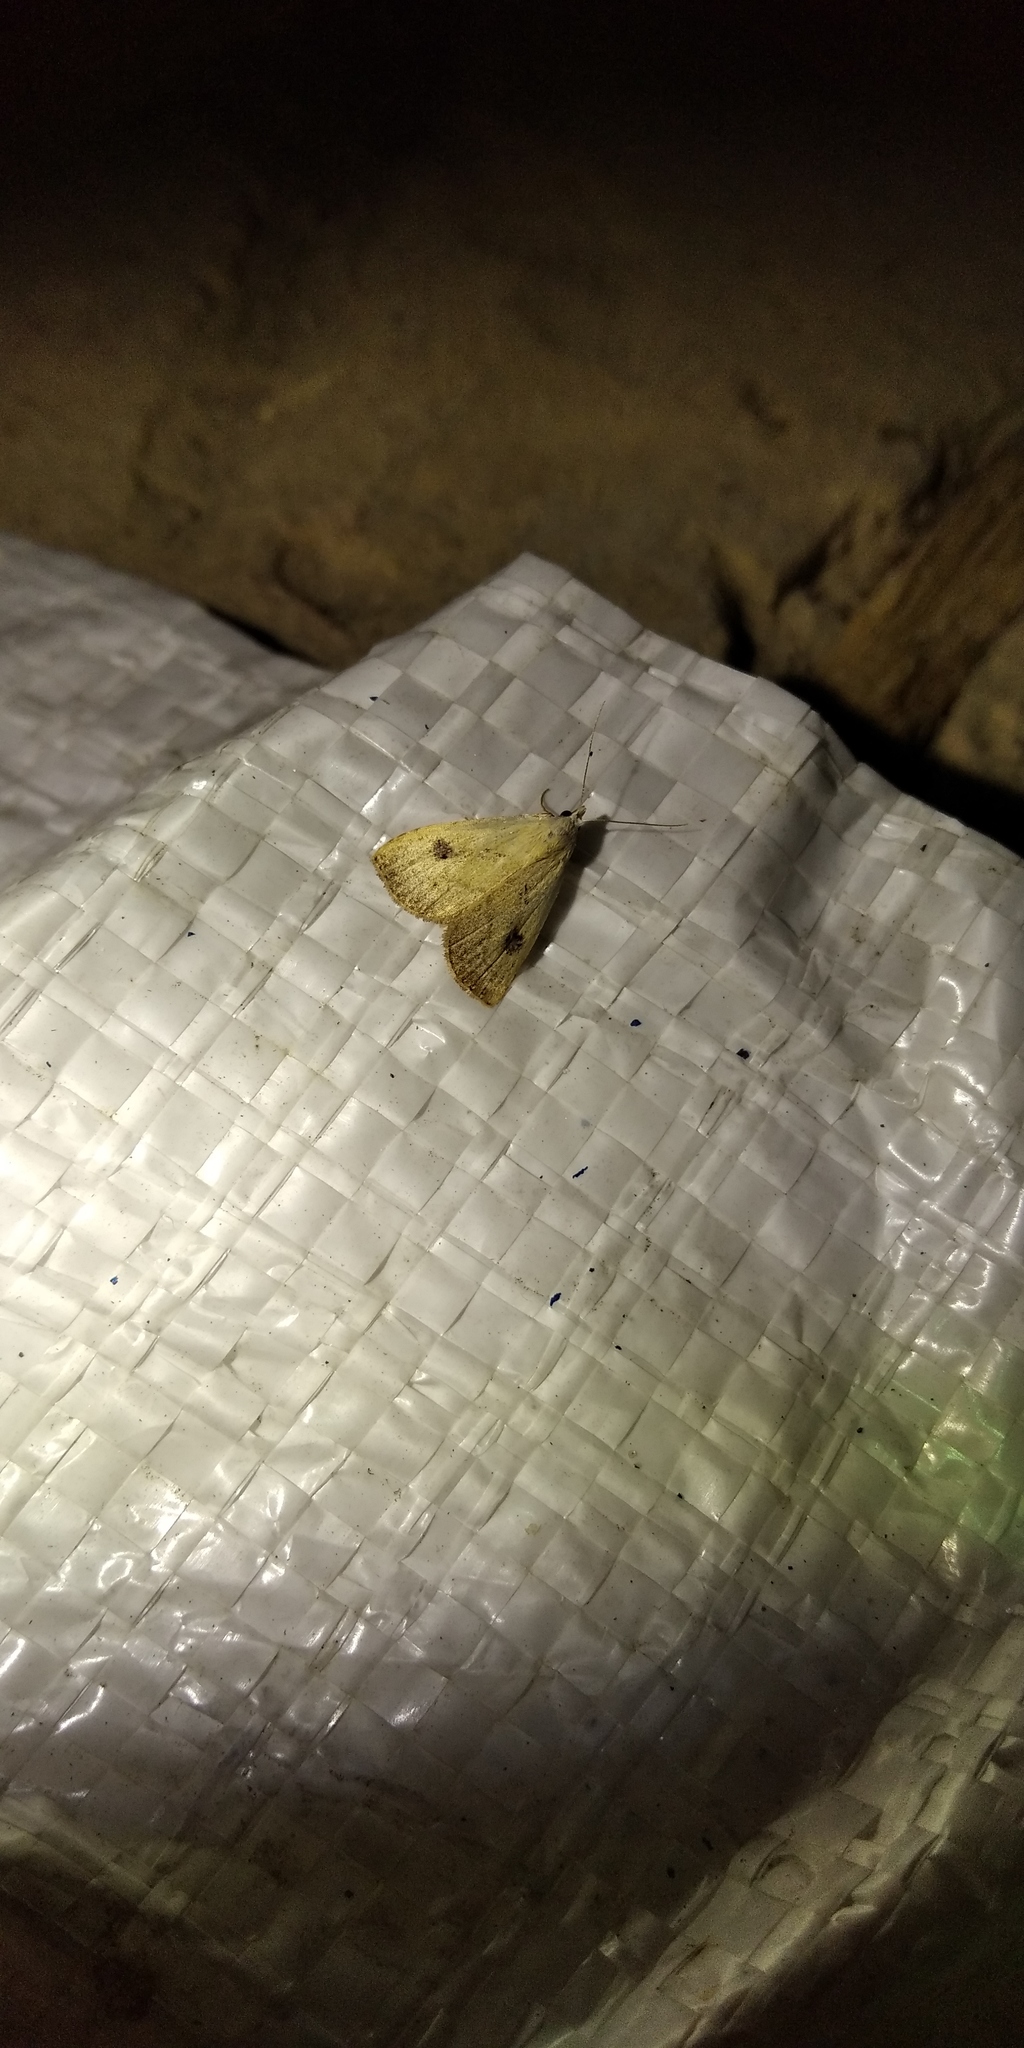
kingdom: Animalia
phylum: Arthropoda
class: Insecta
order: Lepidoptera
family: Erebidae
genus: Rivula
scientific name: Rivula sericealis
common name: Straw dot
